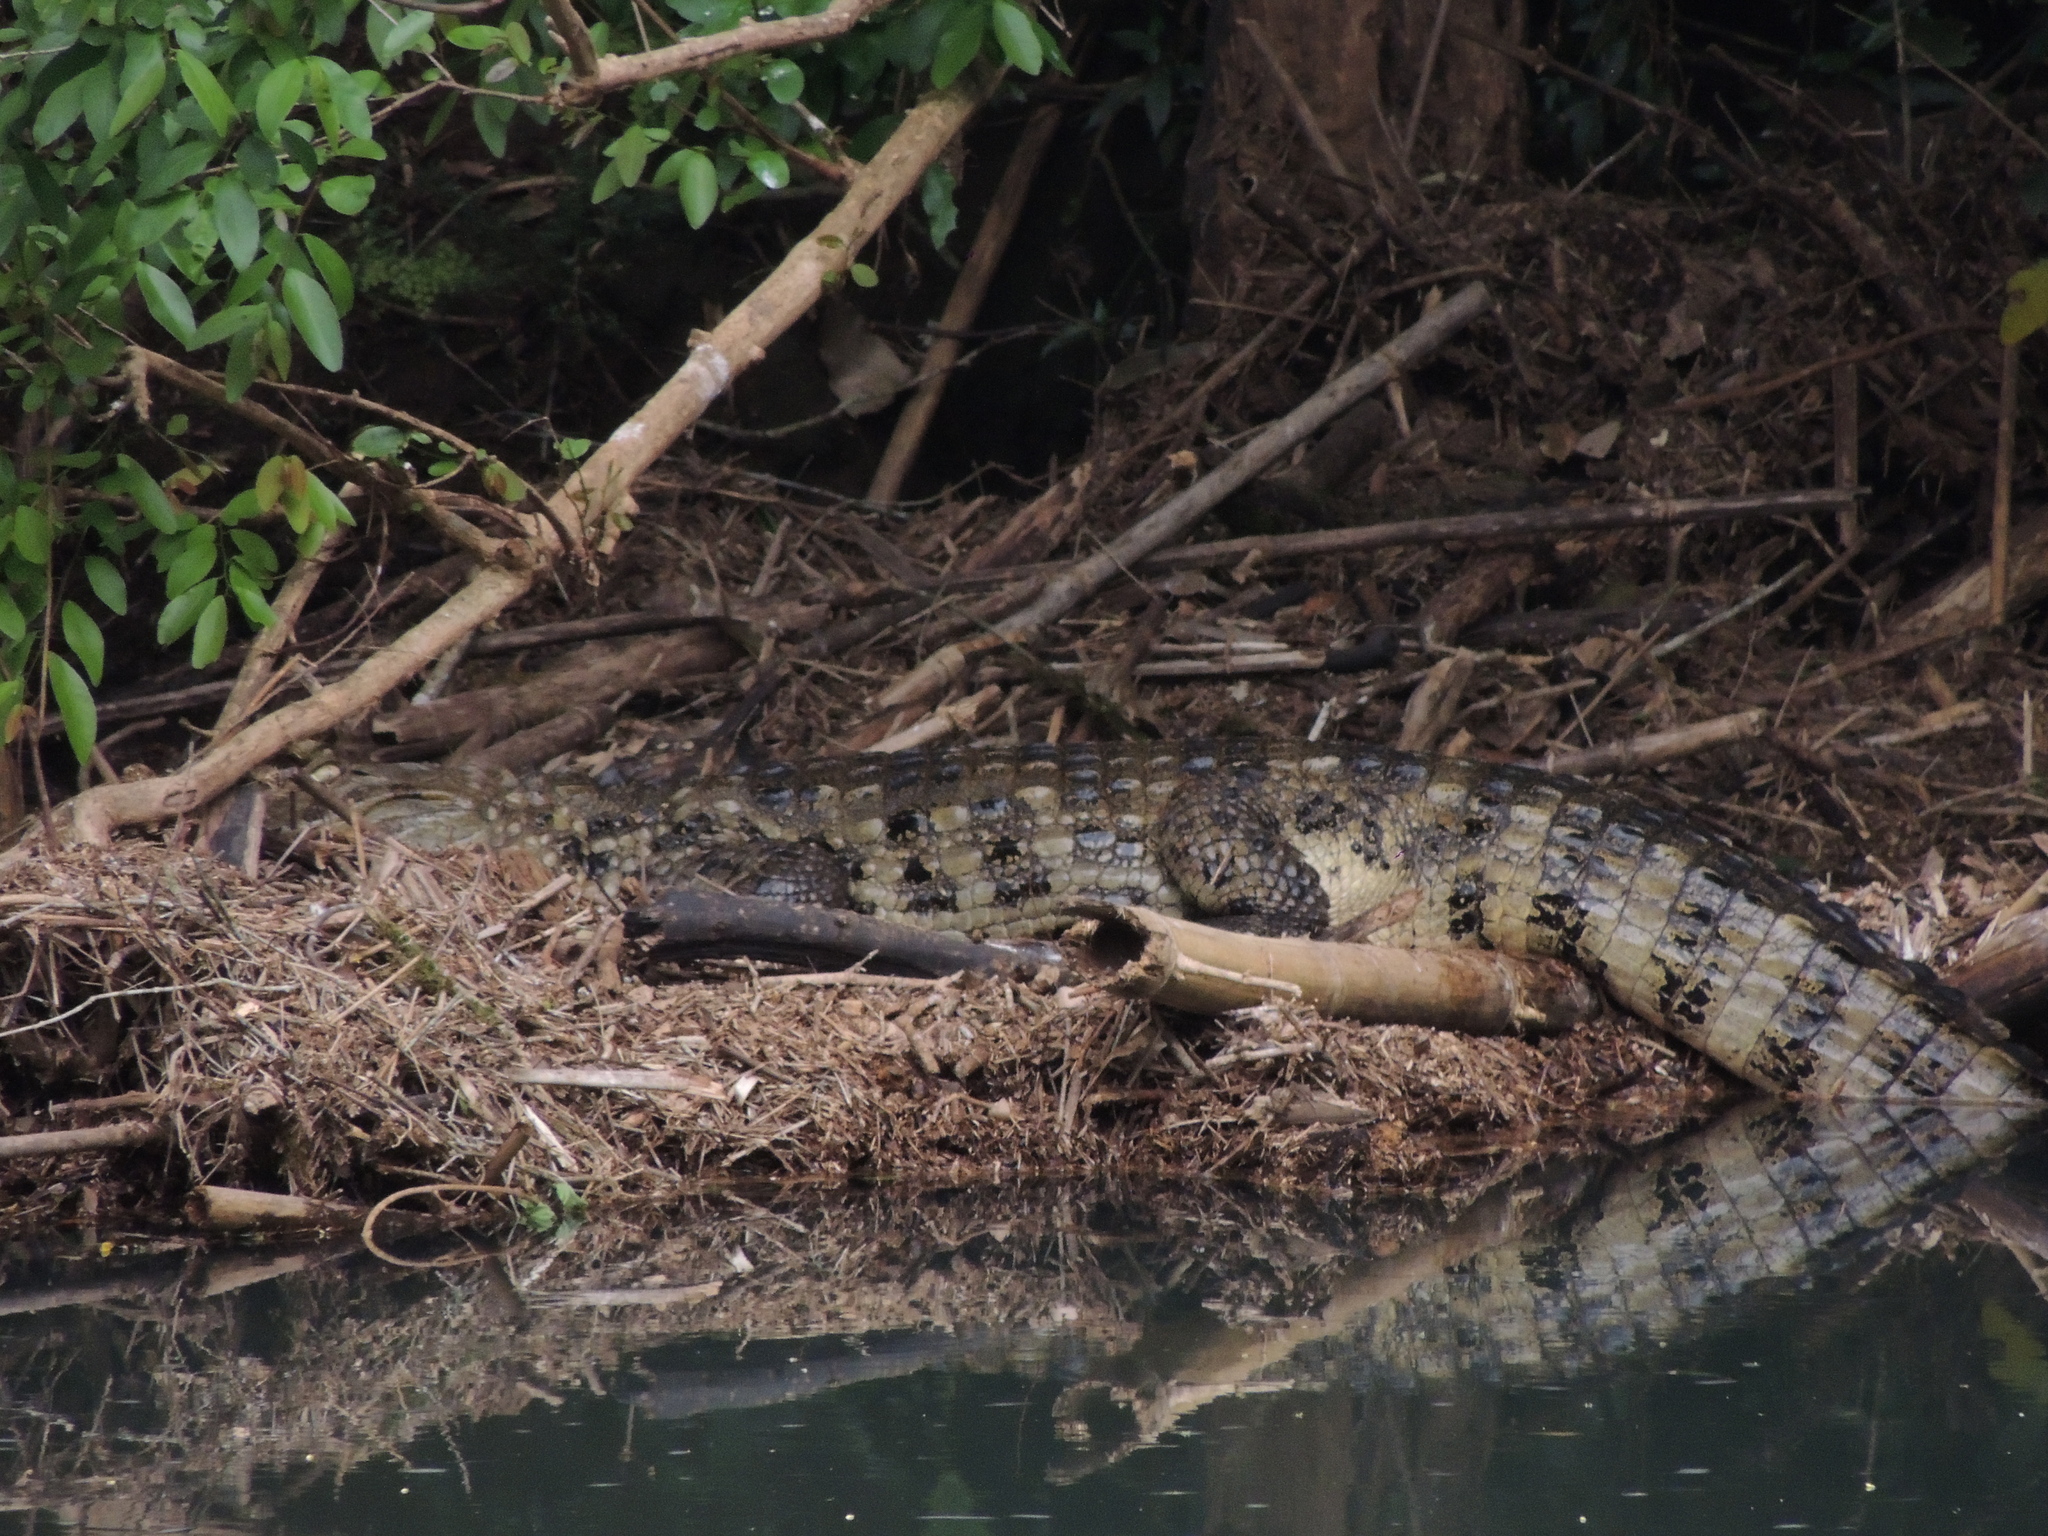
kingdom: Animalia
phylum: Chordata
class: Crocodylia
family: Alligatoridae
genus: Caiman
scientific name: Caiman latirostris
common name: Broad-snouted caiman
